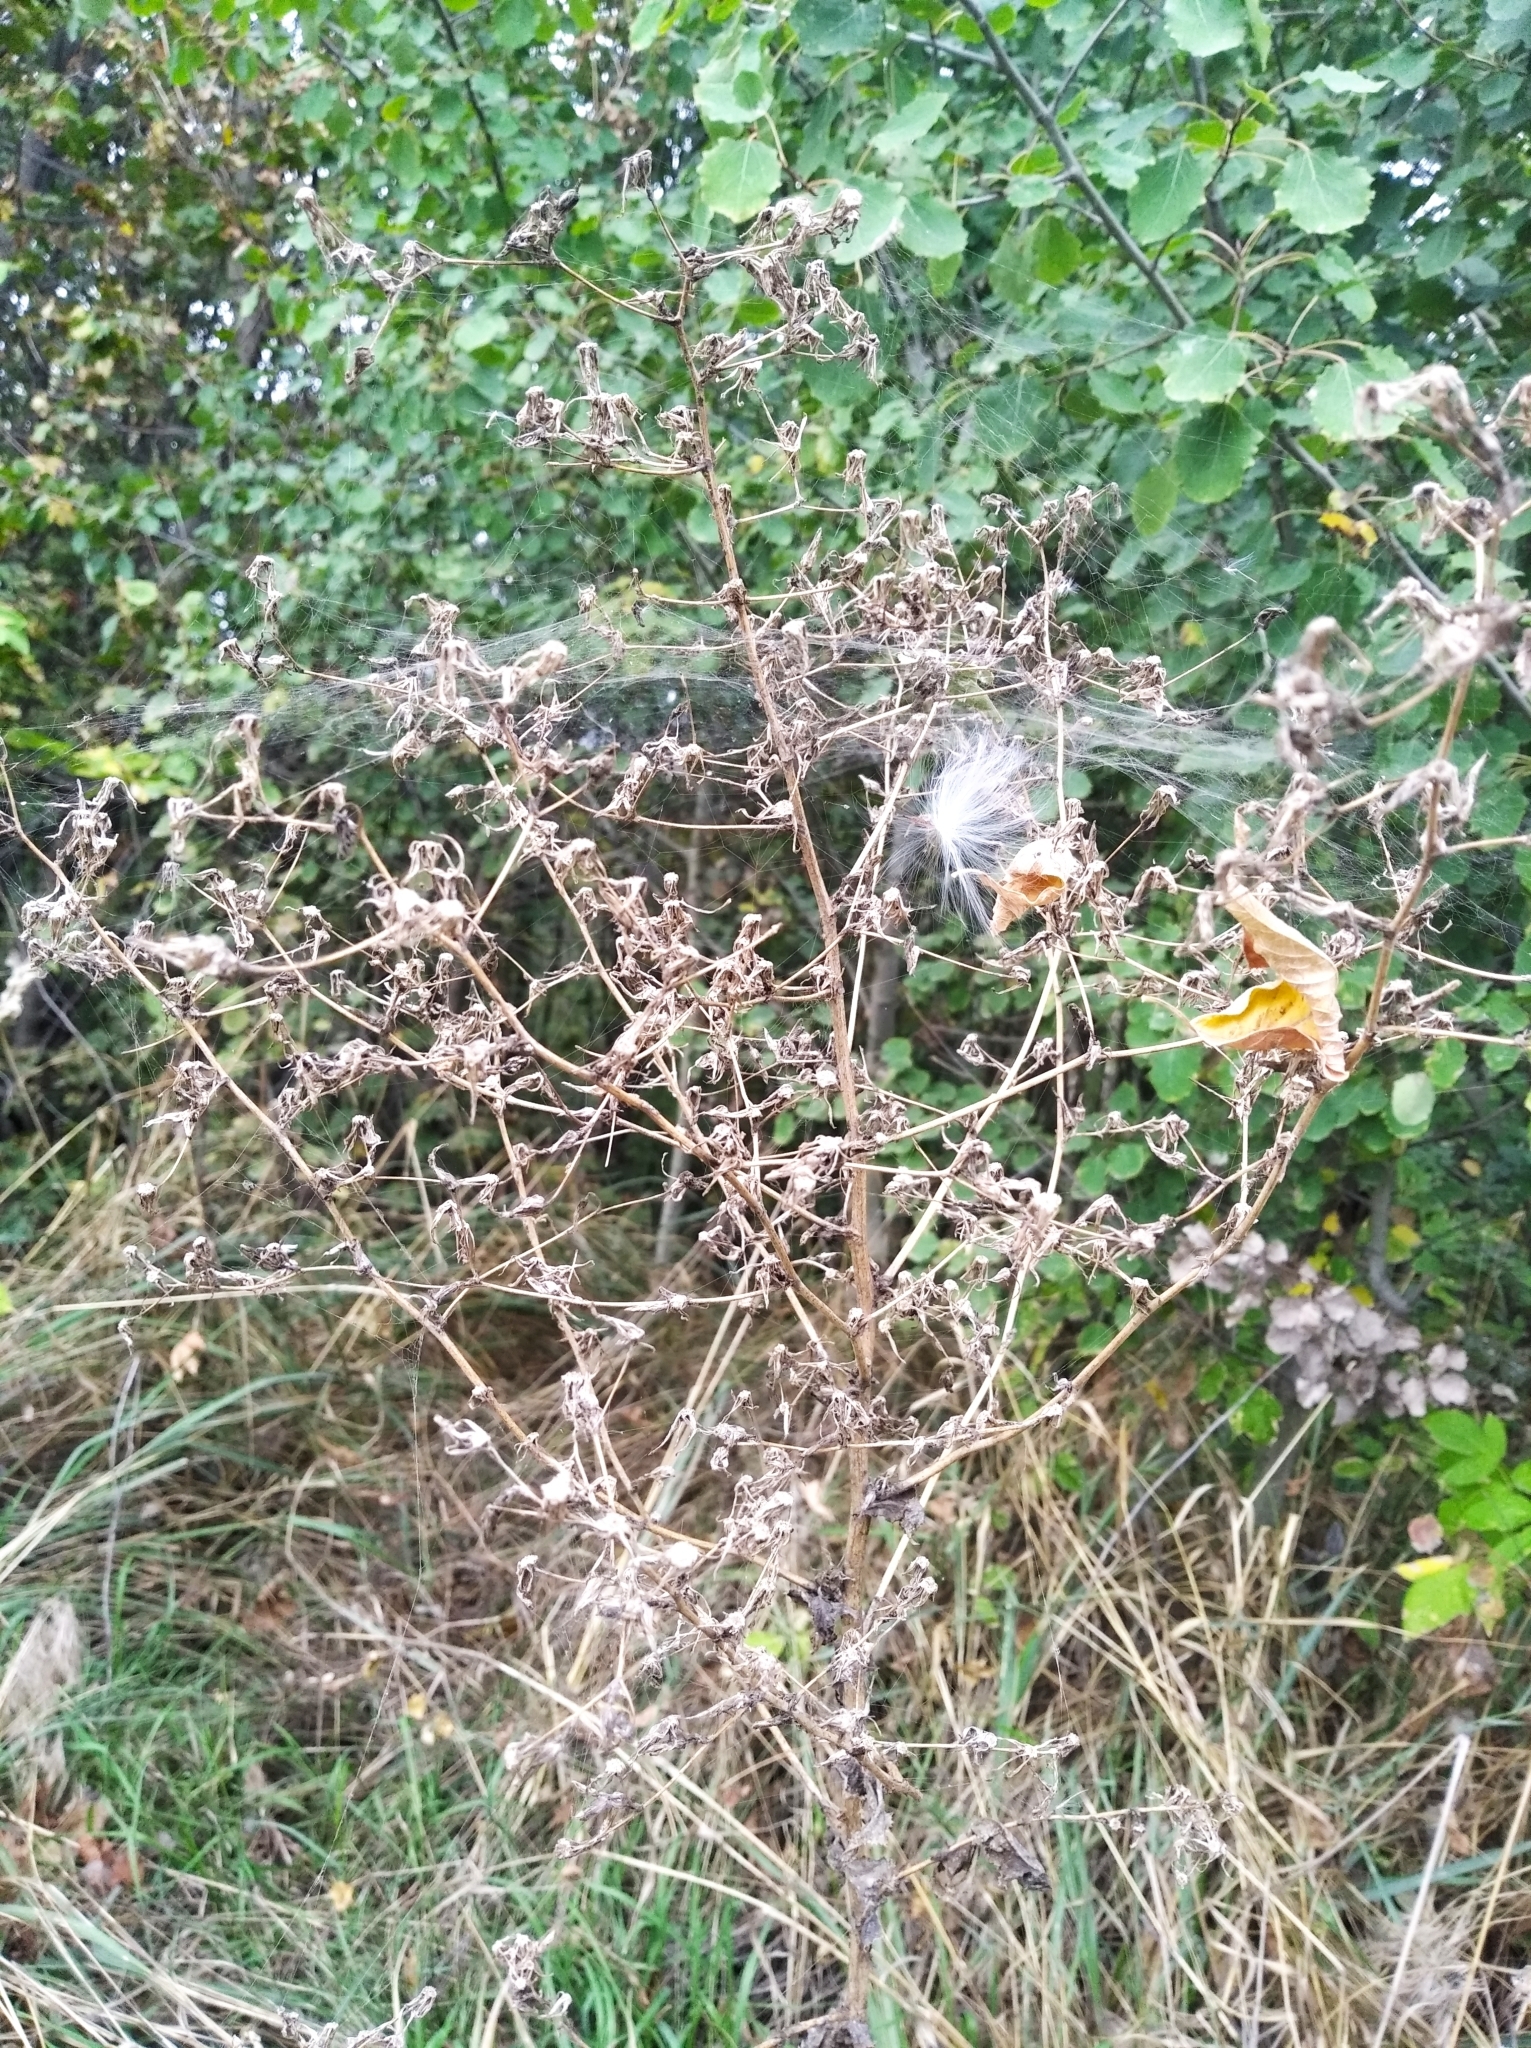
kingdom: Plantae
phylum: Tracheophyta
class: Magnoliopsida
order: Asterales
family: Asteraceae
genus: Lactuca
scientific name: Lactuca serriola
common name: Prickly lettuce
